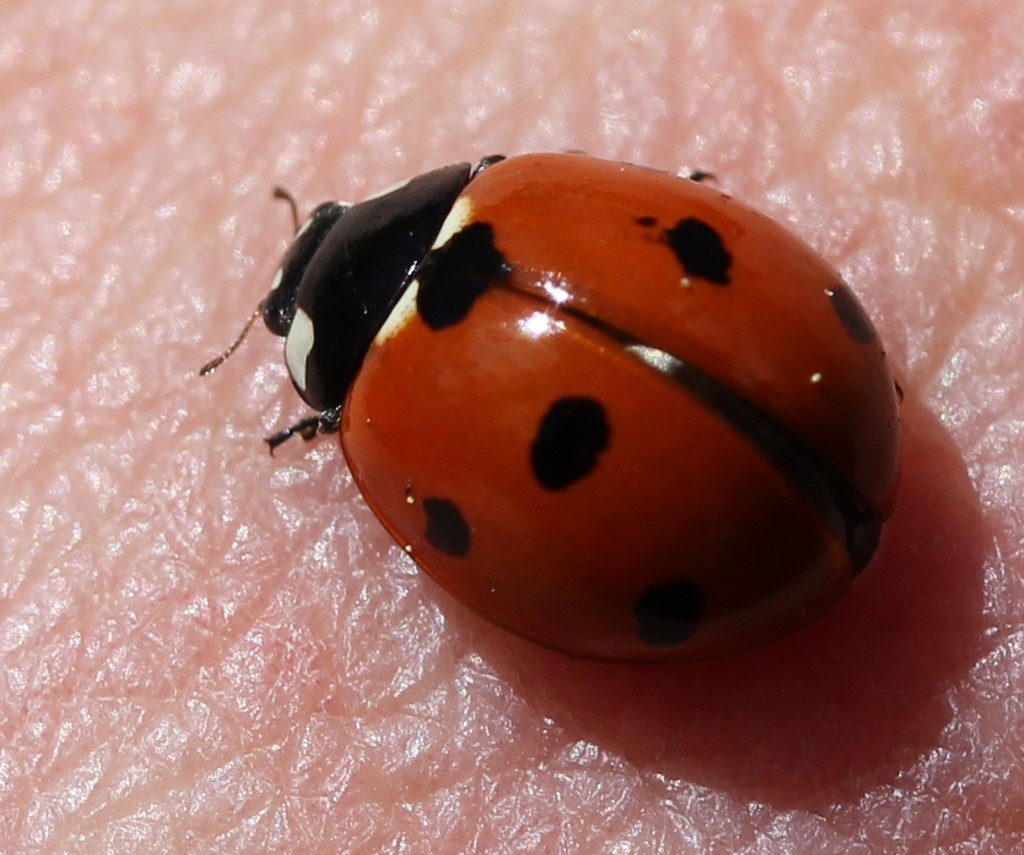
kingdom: Animalia
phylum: Arthropoda
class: Insecta
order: Coleoptera
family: Coccinellidae
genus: Coccinella
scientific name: Coccinella septempunctata
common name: Sevenspotted lady beetle
